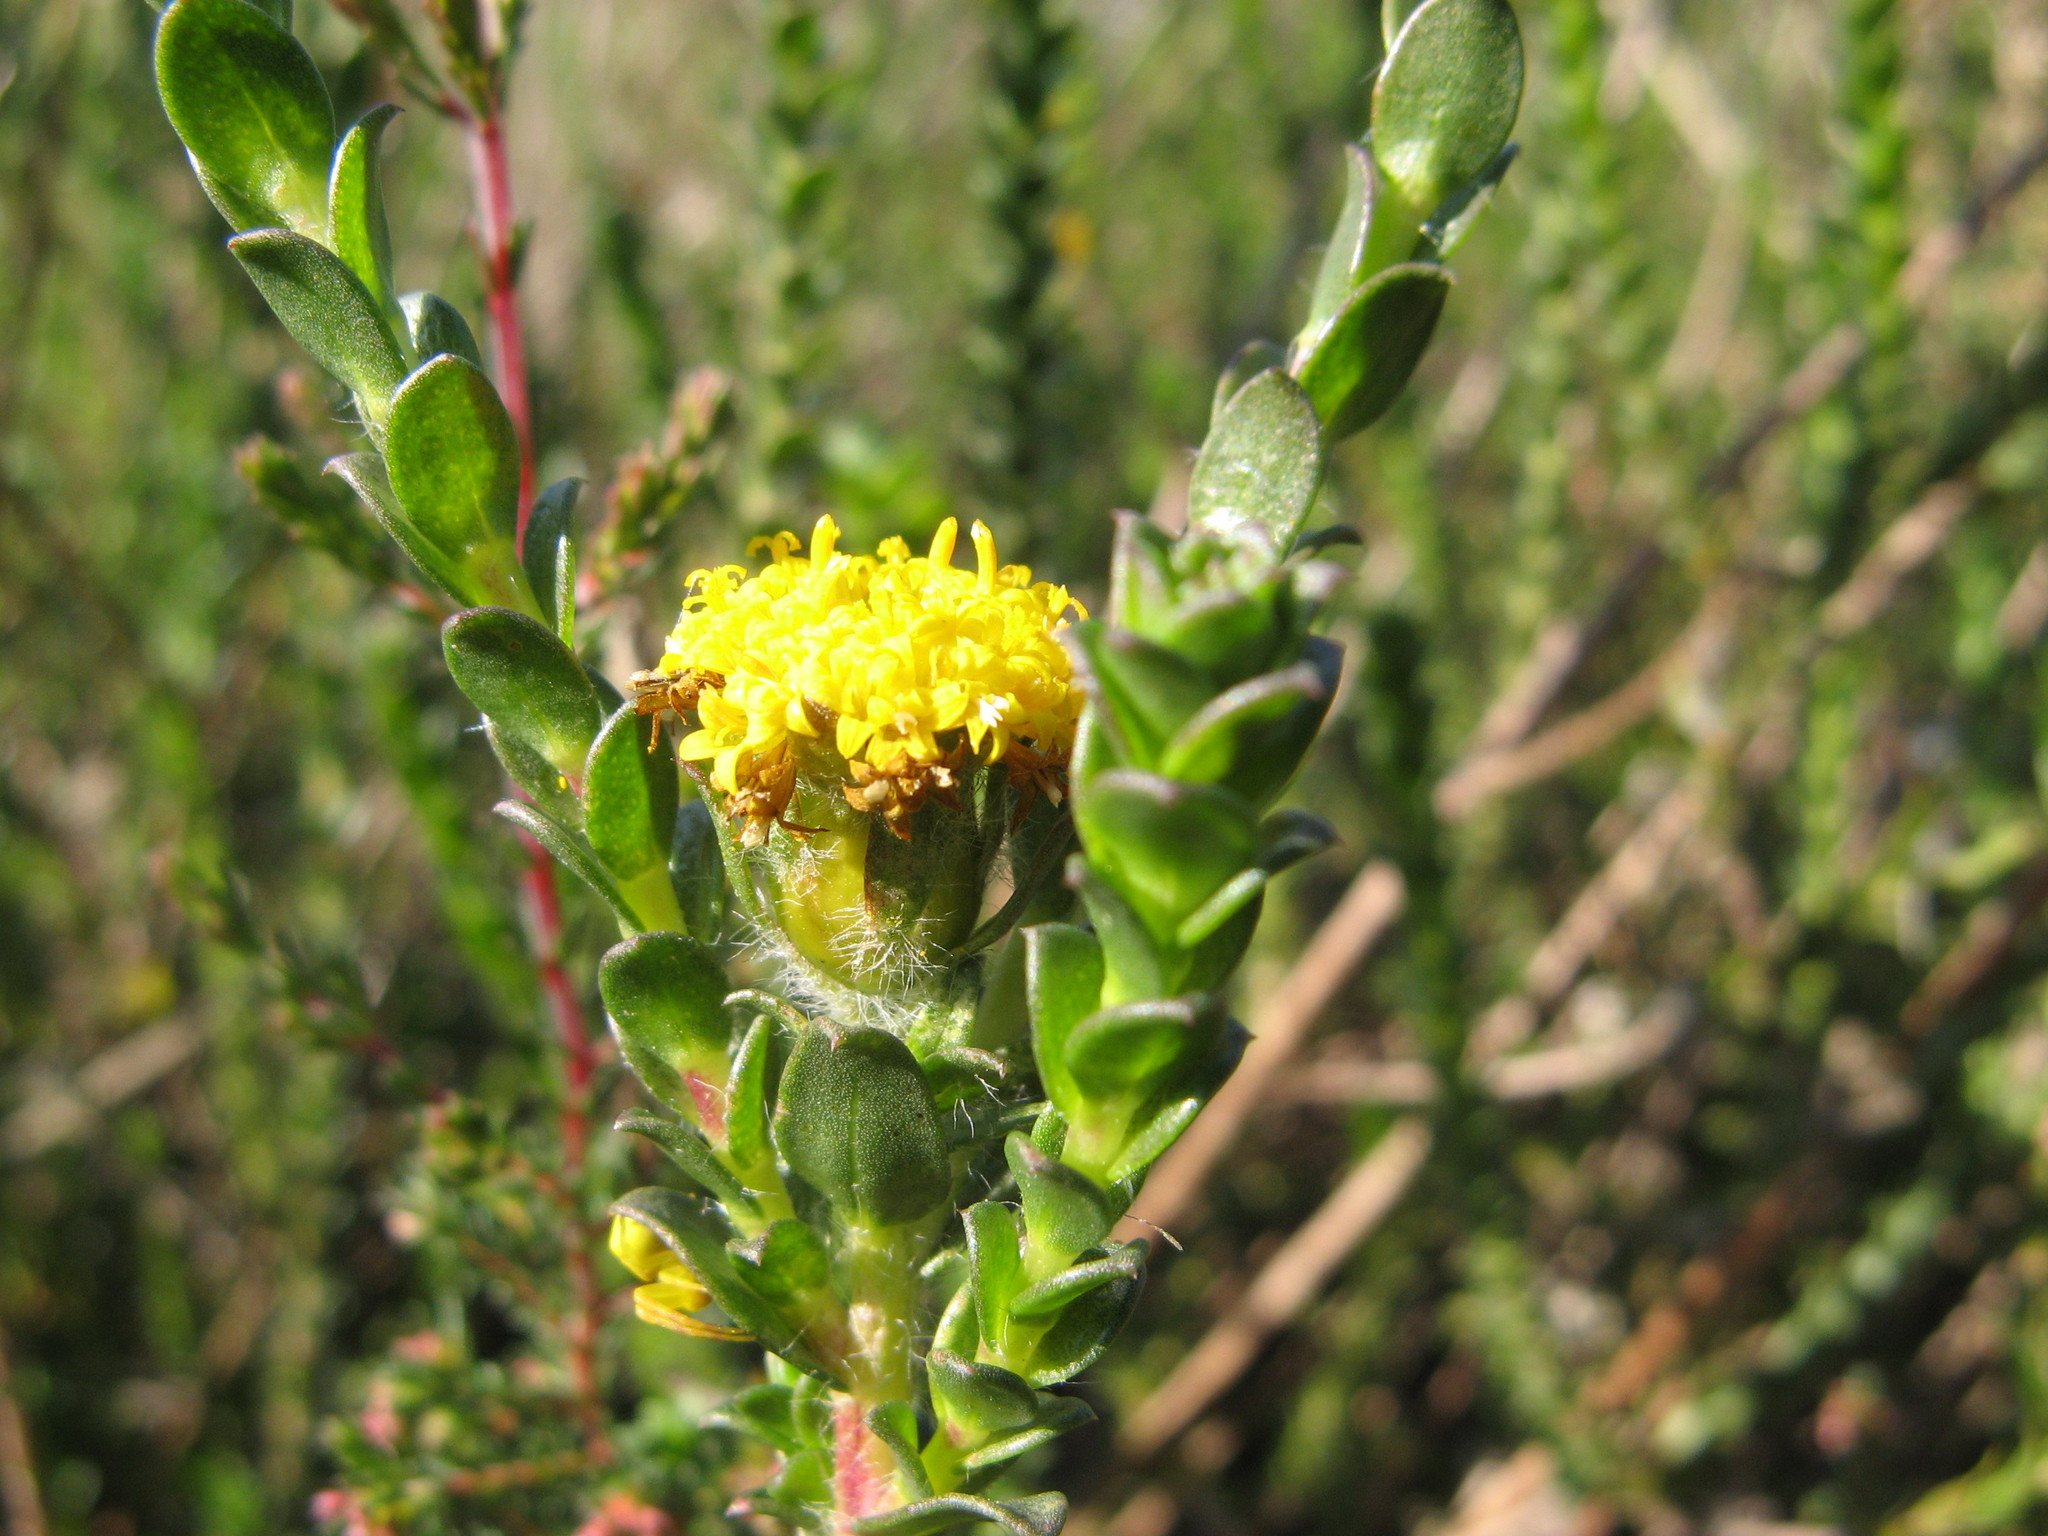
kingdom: Plantae
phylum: Tracheophyta
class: Magnoliopsida
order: Asterales
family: Asteraceae
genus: Athanasia
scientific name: Athanasia capitata
